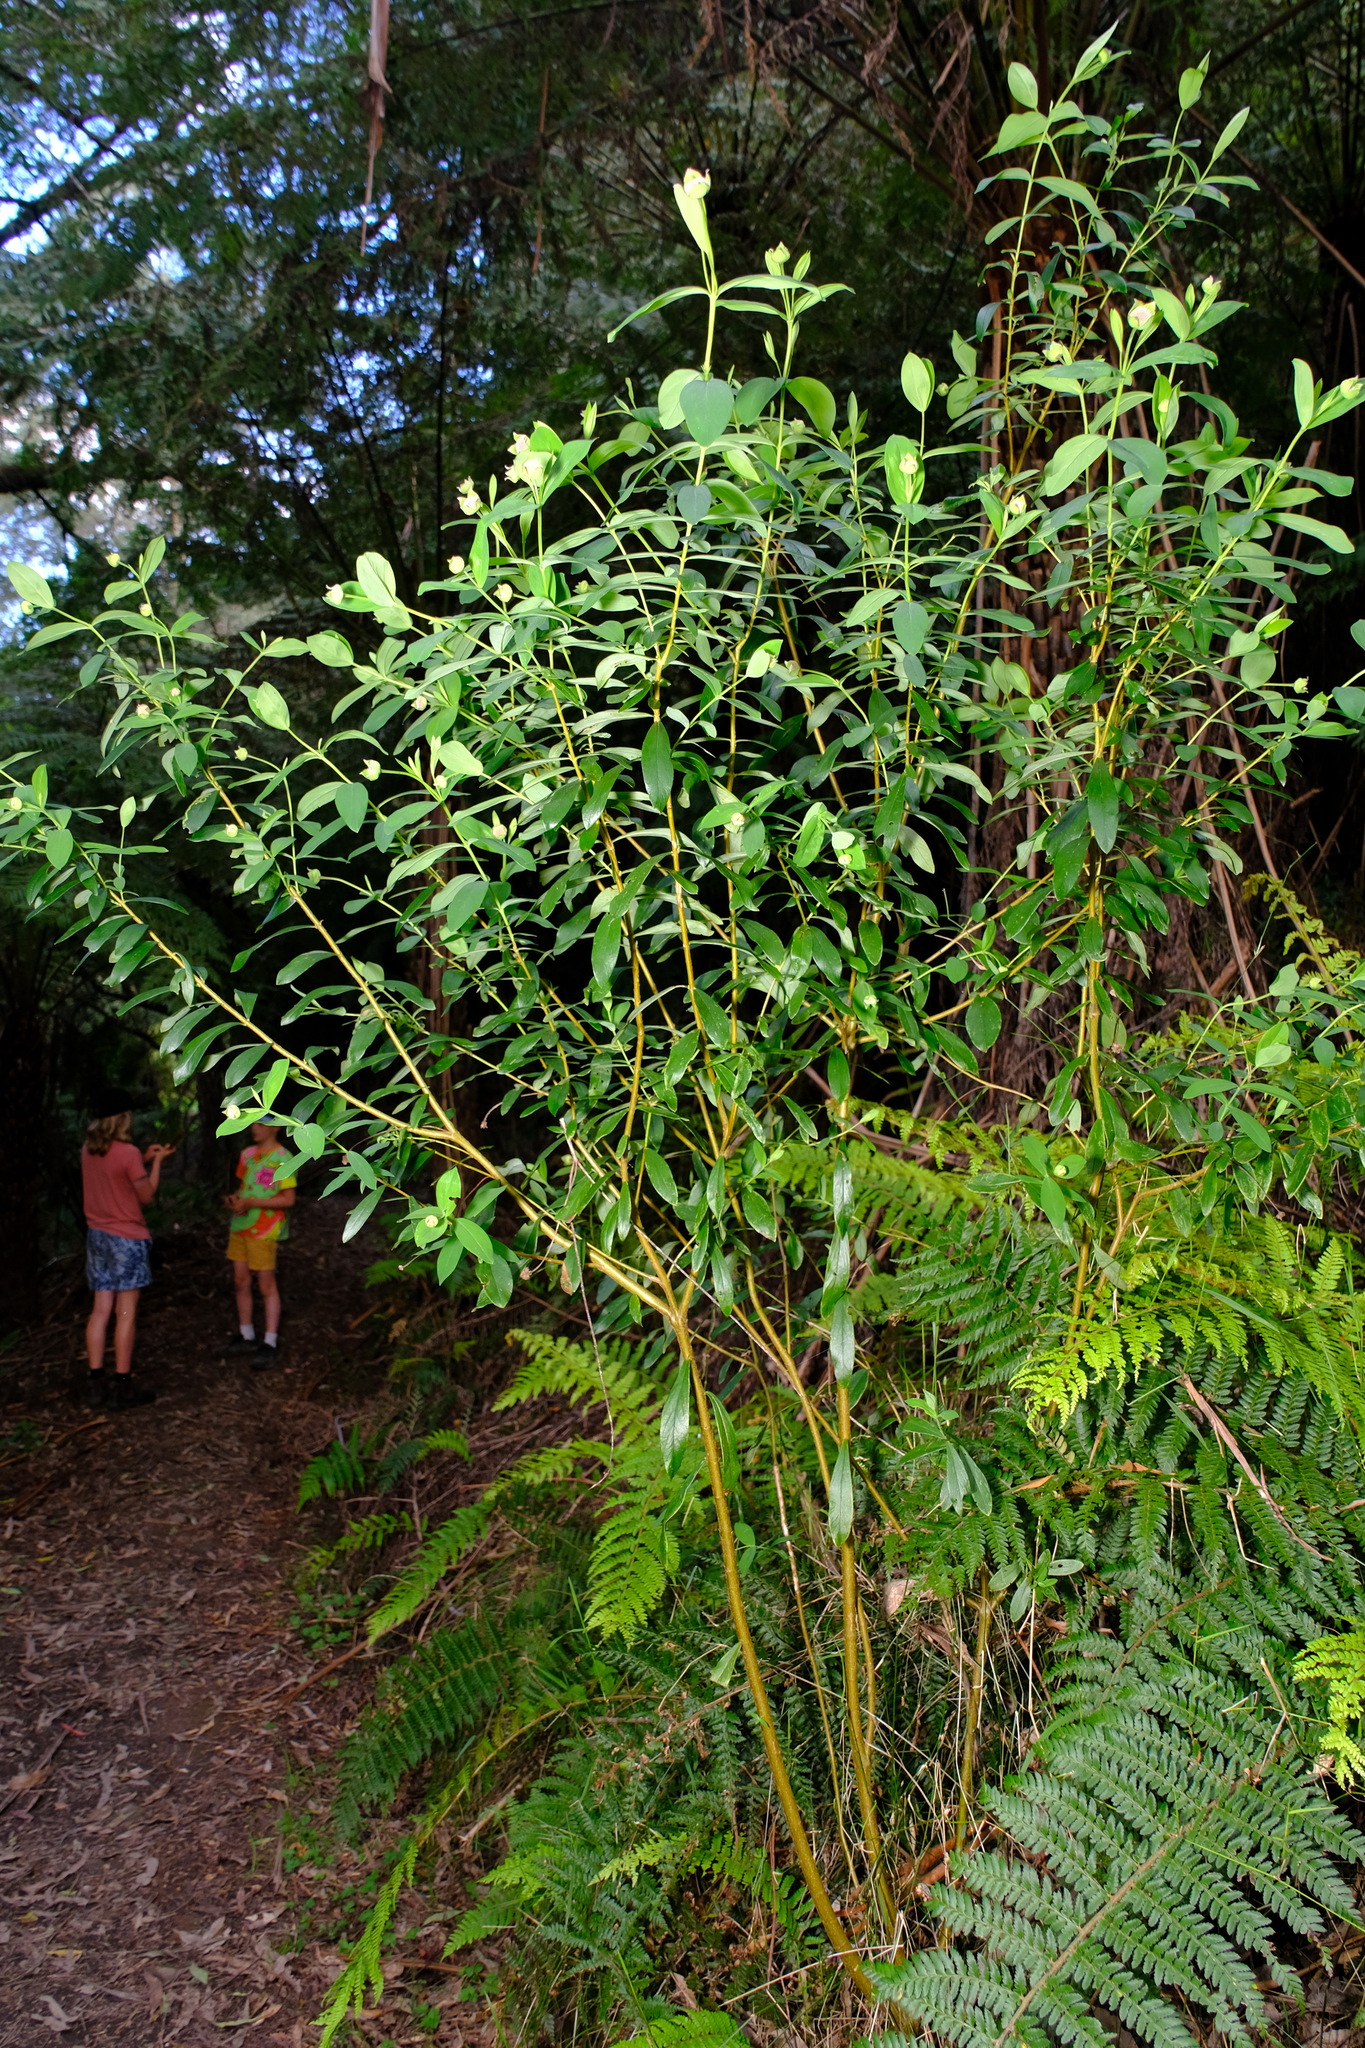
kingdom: Plantae
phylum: Tracheophyta
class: Magnoliopsida
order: Malvales
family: Thymelaeaceae
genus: Pimelea
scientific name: Pimelea ligustrina
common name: Tall riceflower
